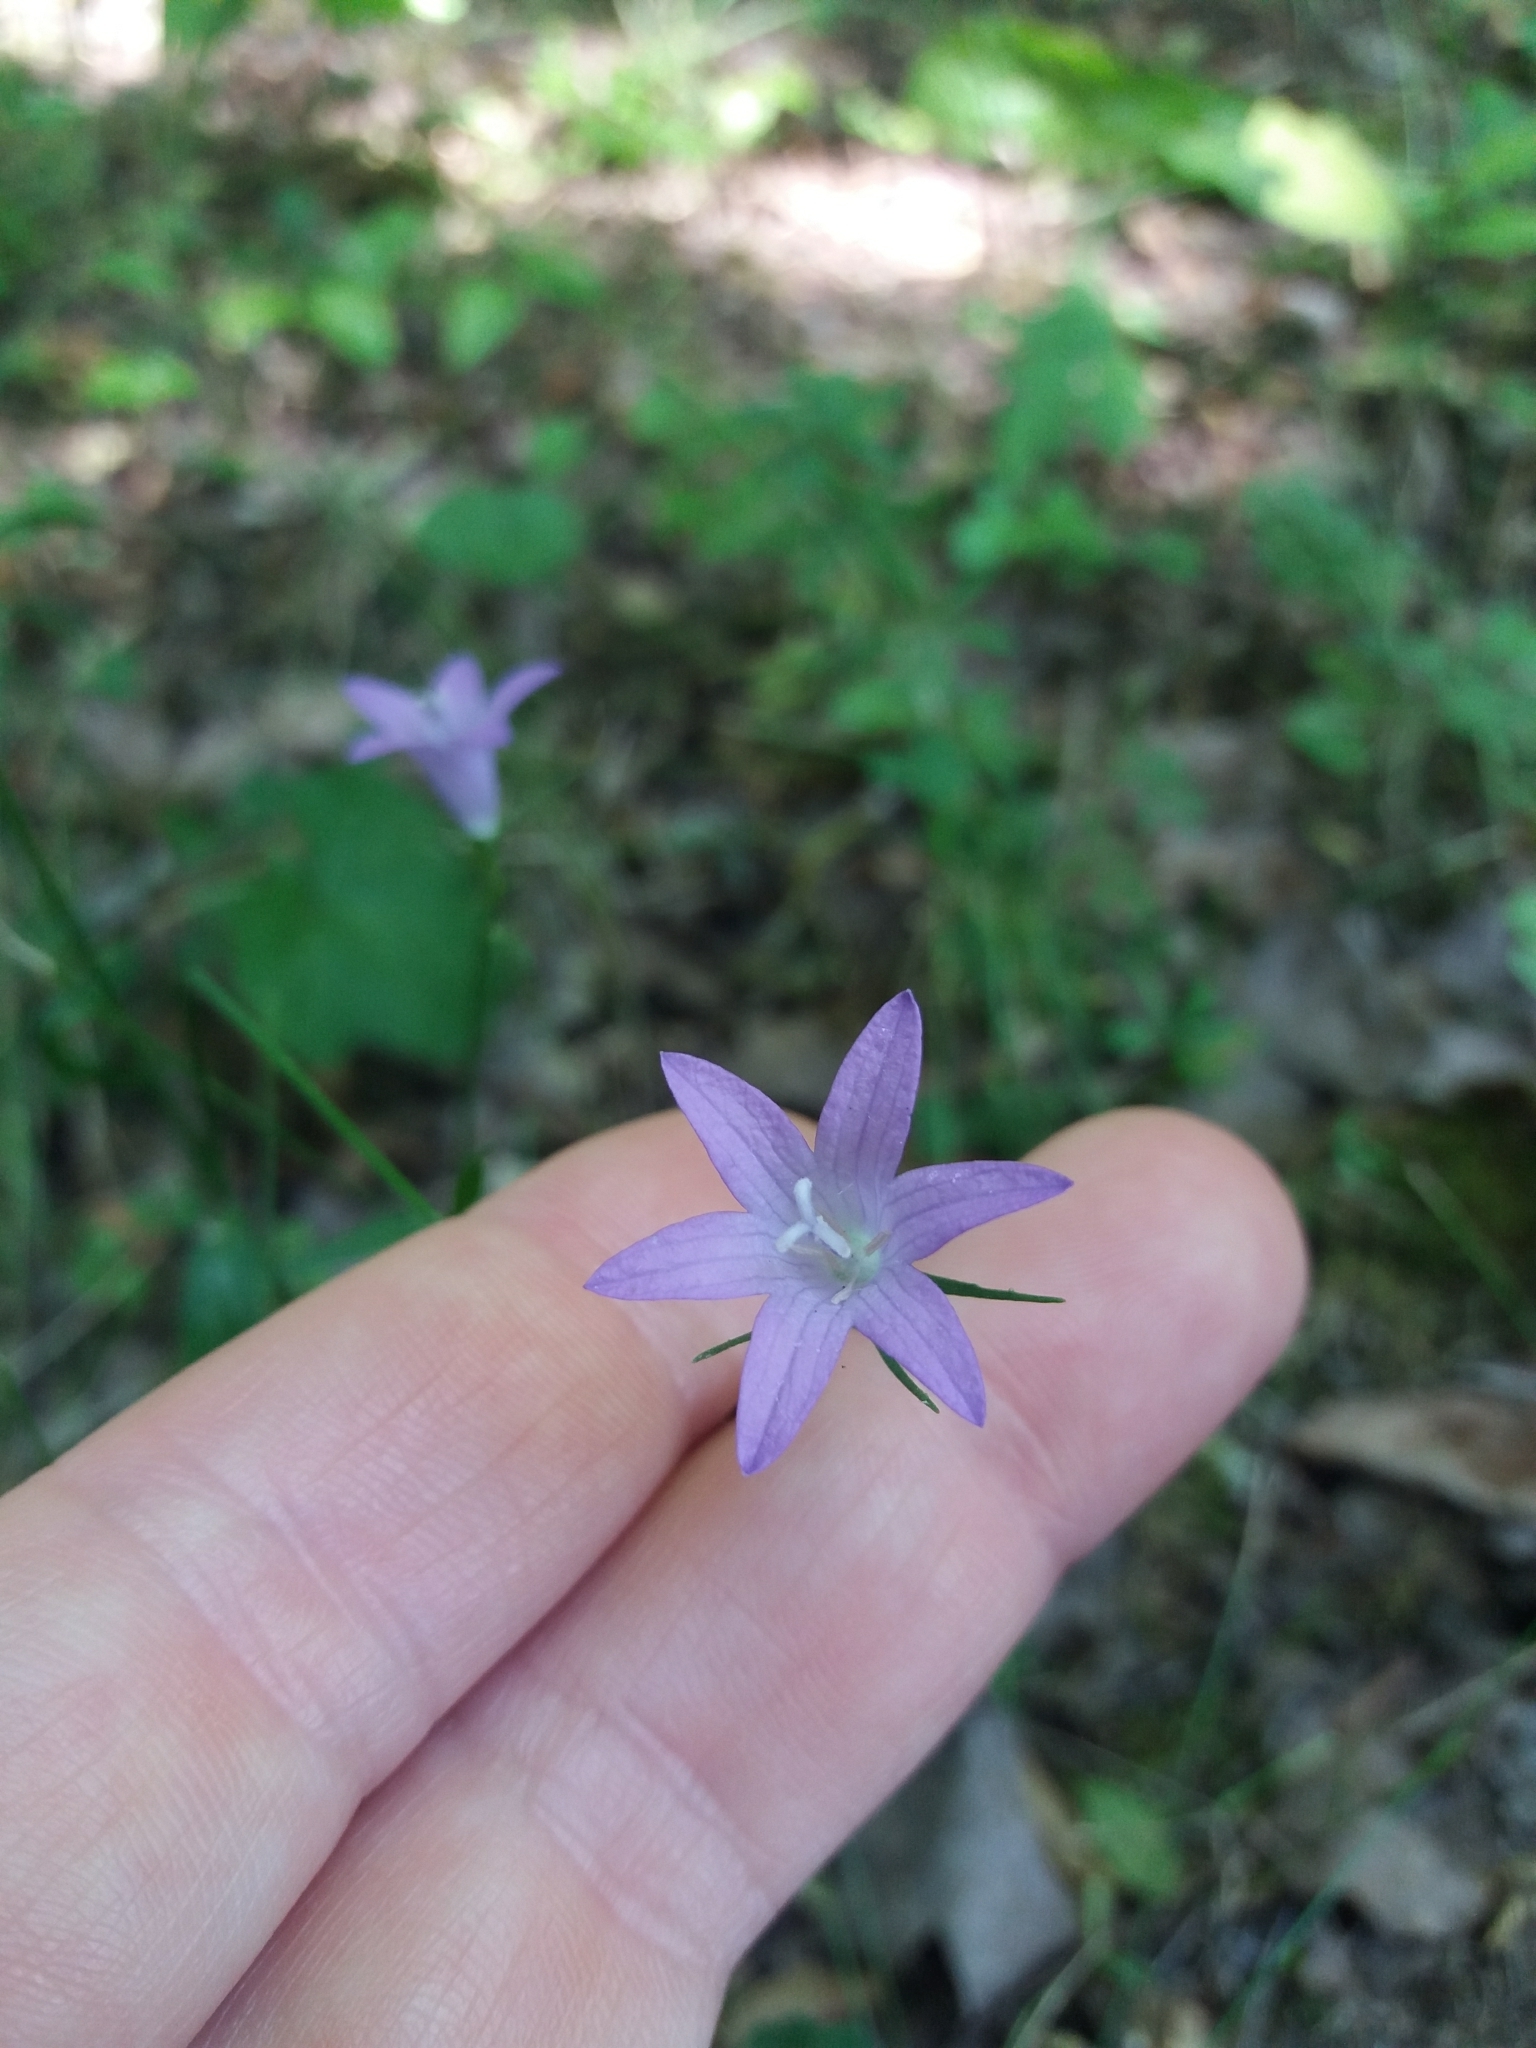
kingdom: Plantae
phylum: Tracheophyta
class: Magnoliopsida
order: Asterales
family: Campanulaceae
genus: Campanula
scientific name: Campanula patula
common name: Spreading bellflower
